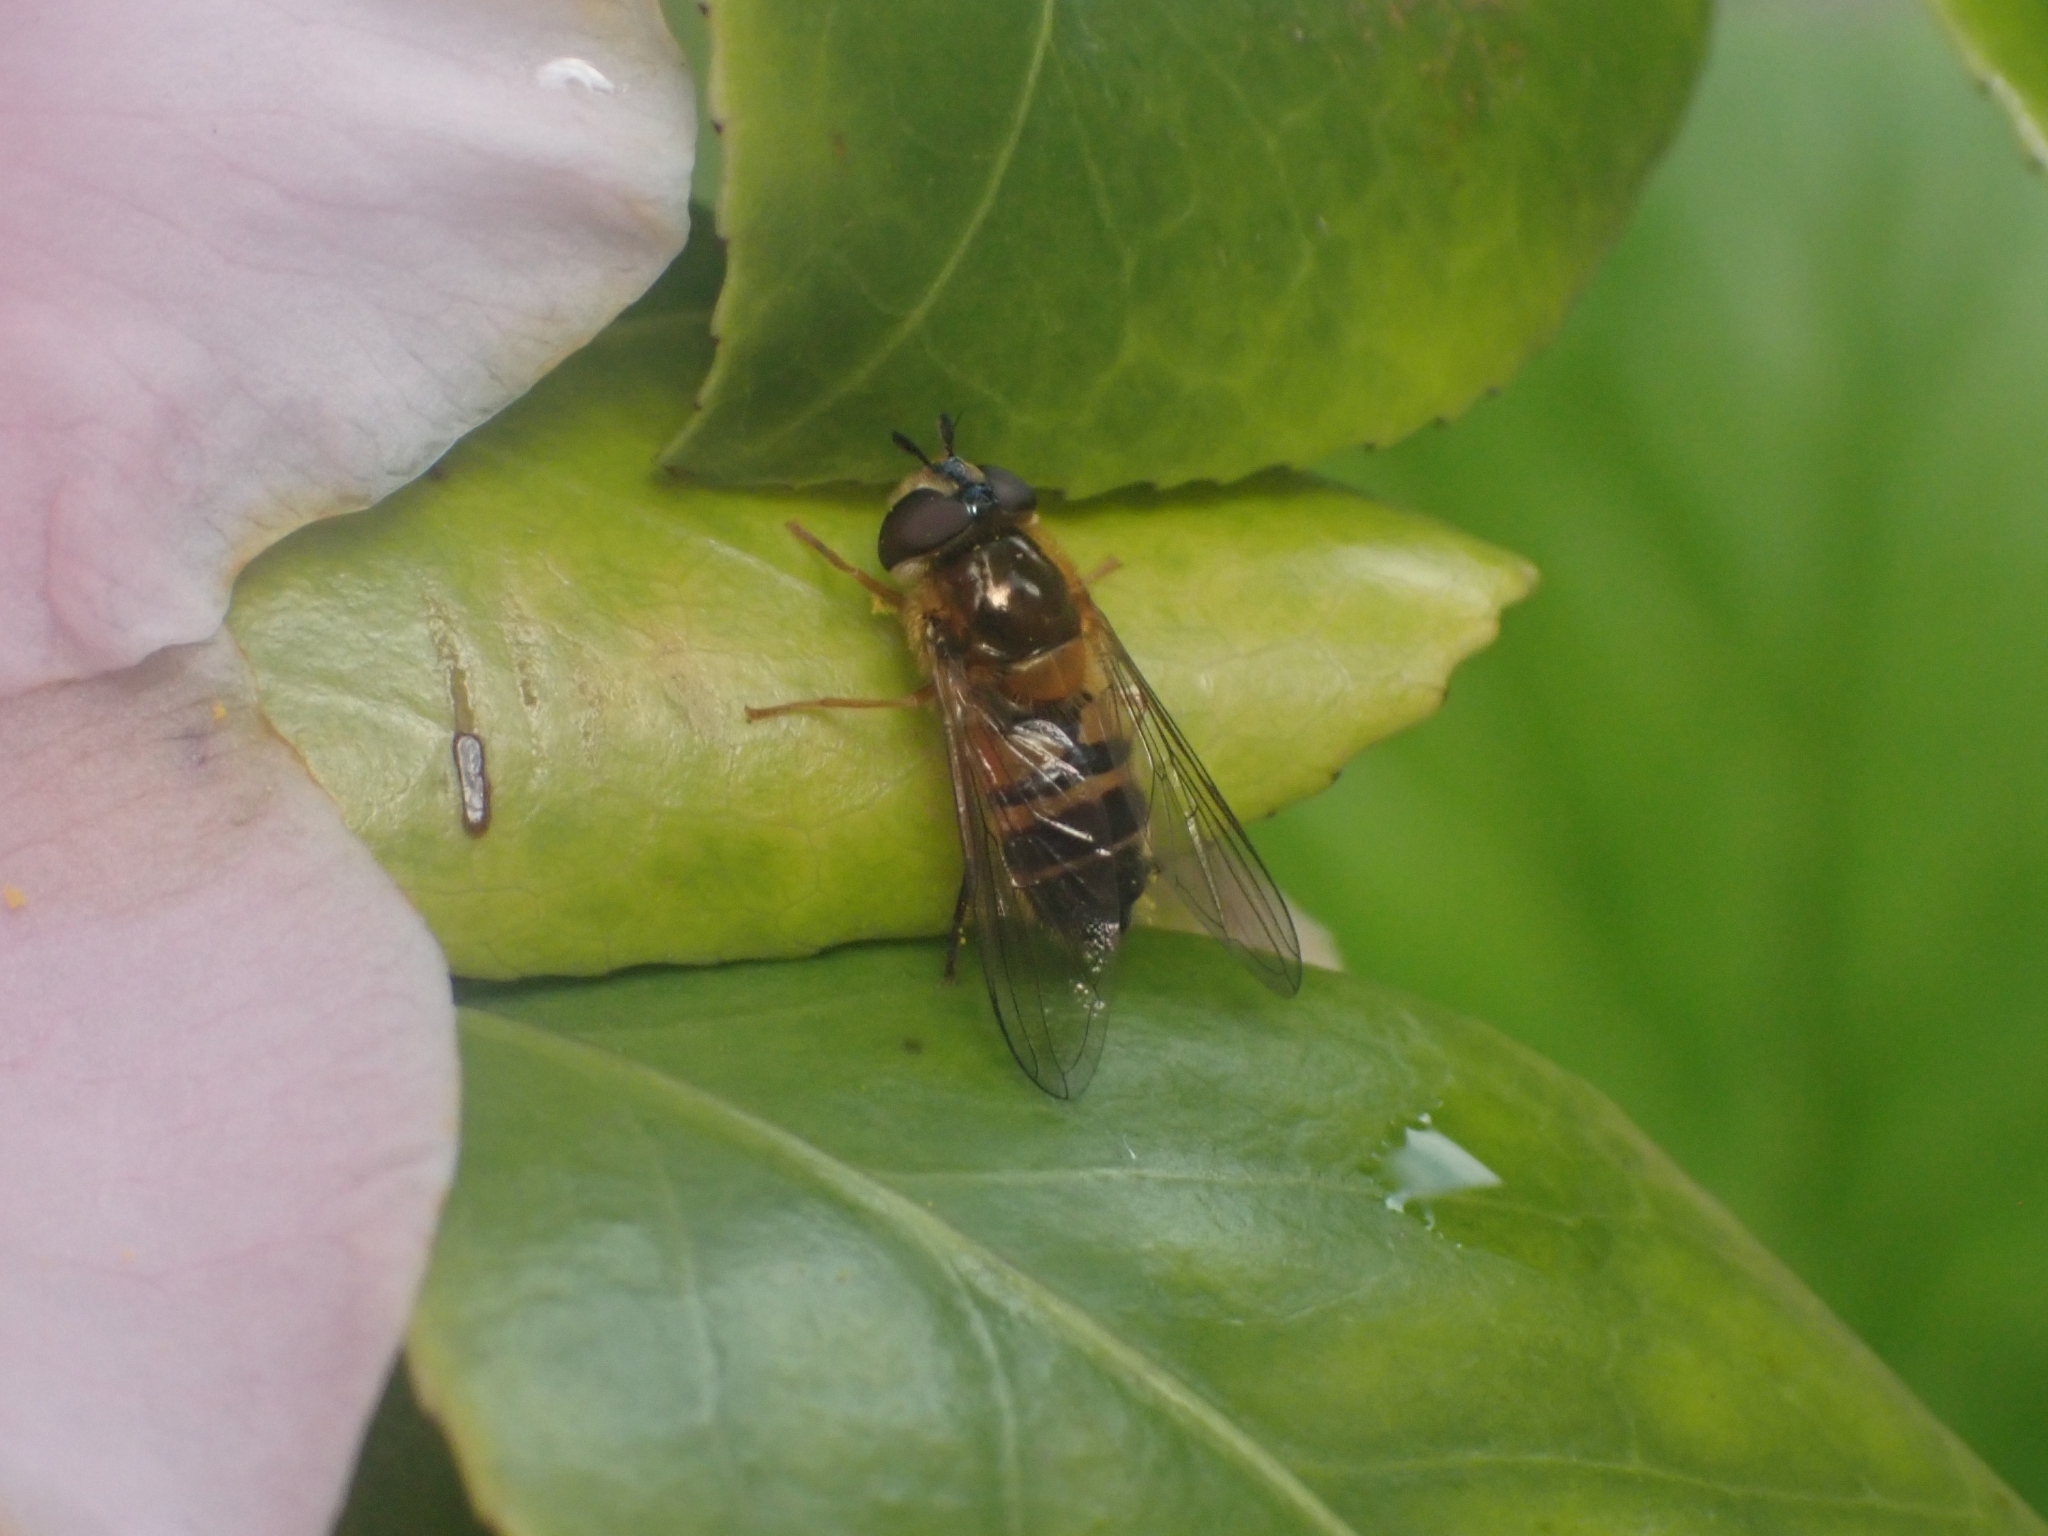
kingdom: Animalia
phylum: Arthropoda
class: Insecta
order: Diptera
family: Syrphidae
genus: Epistrophe
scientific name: Epistrophe eligans
